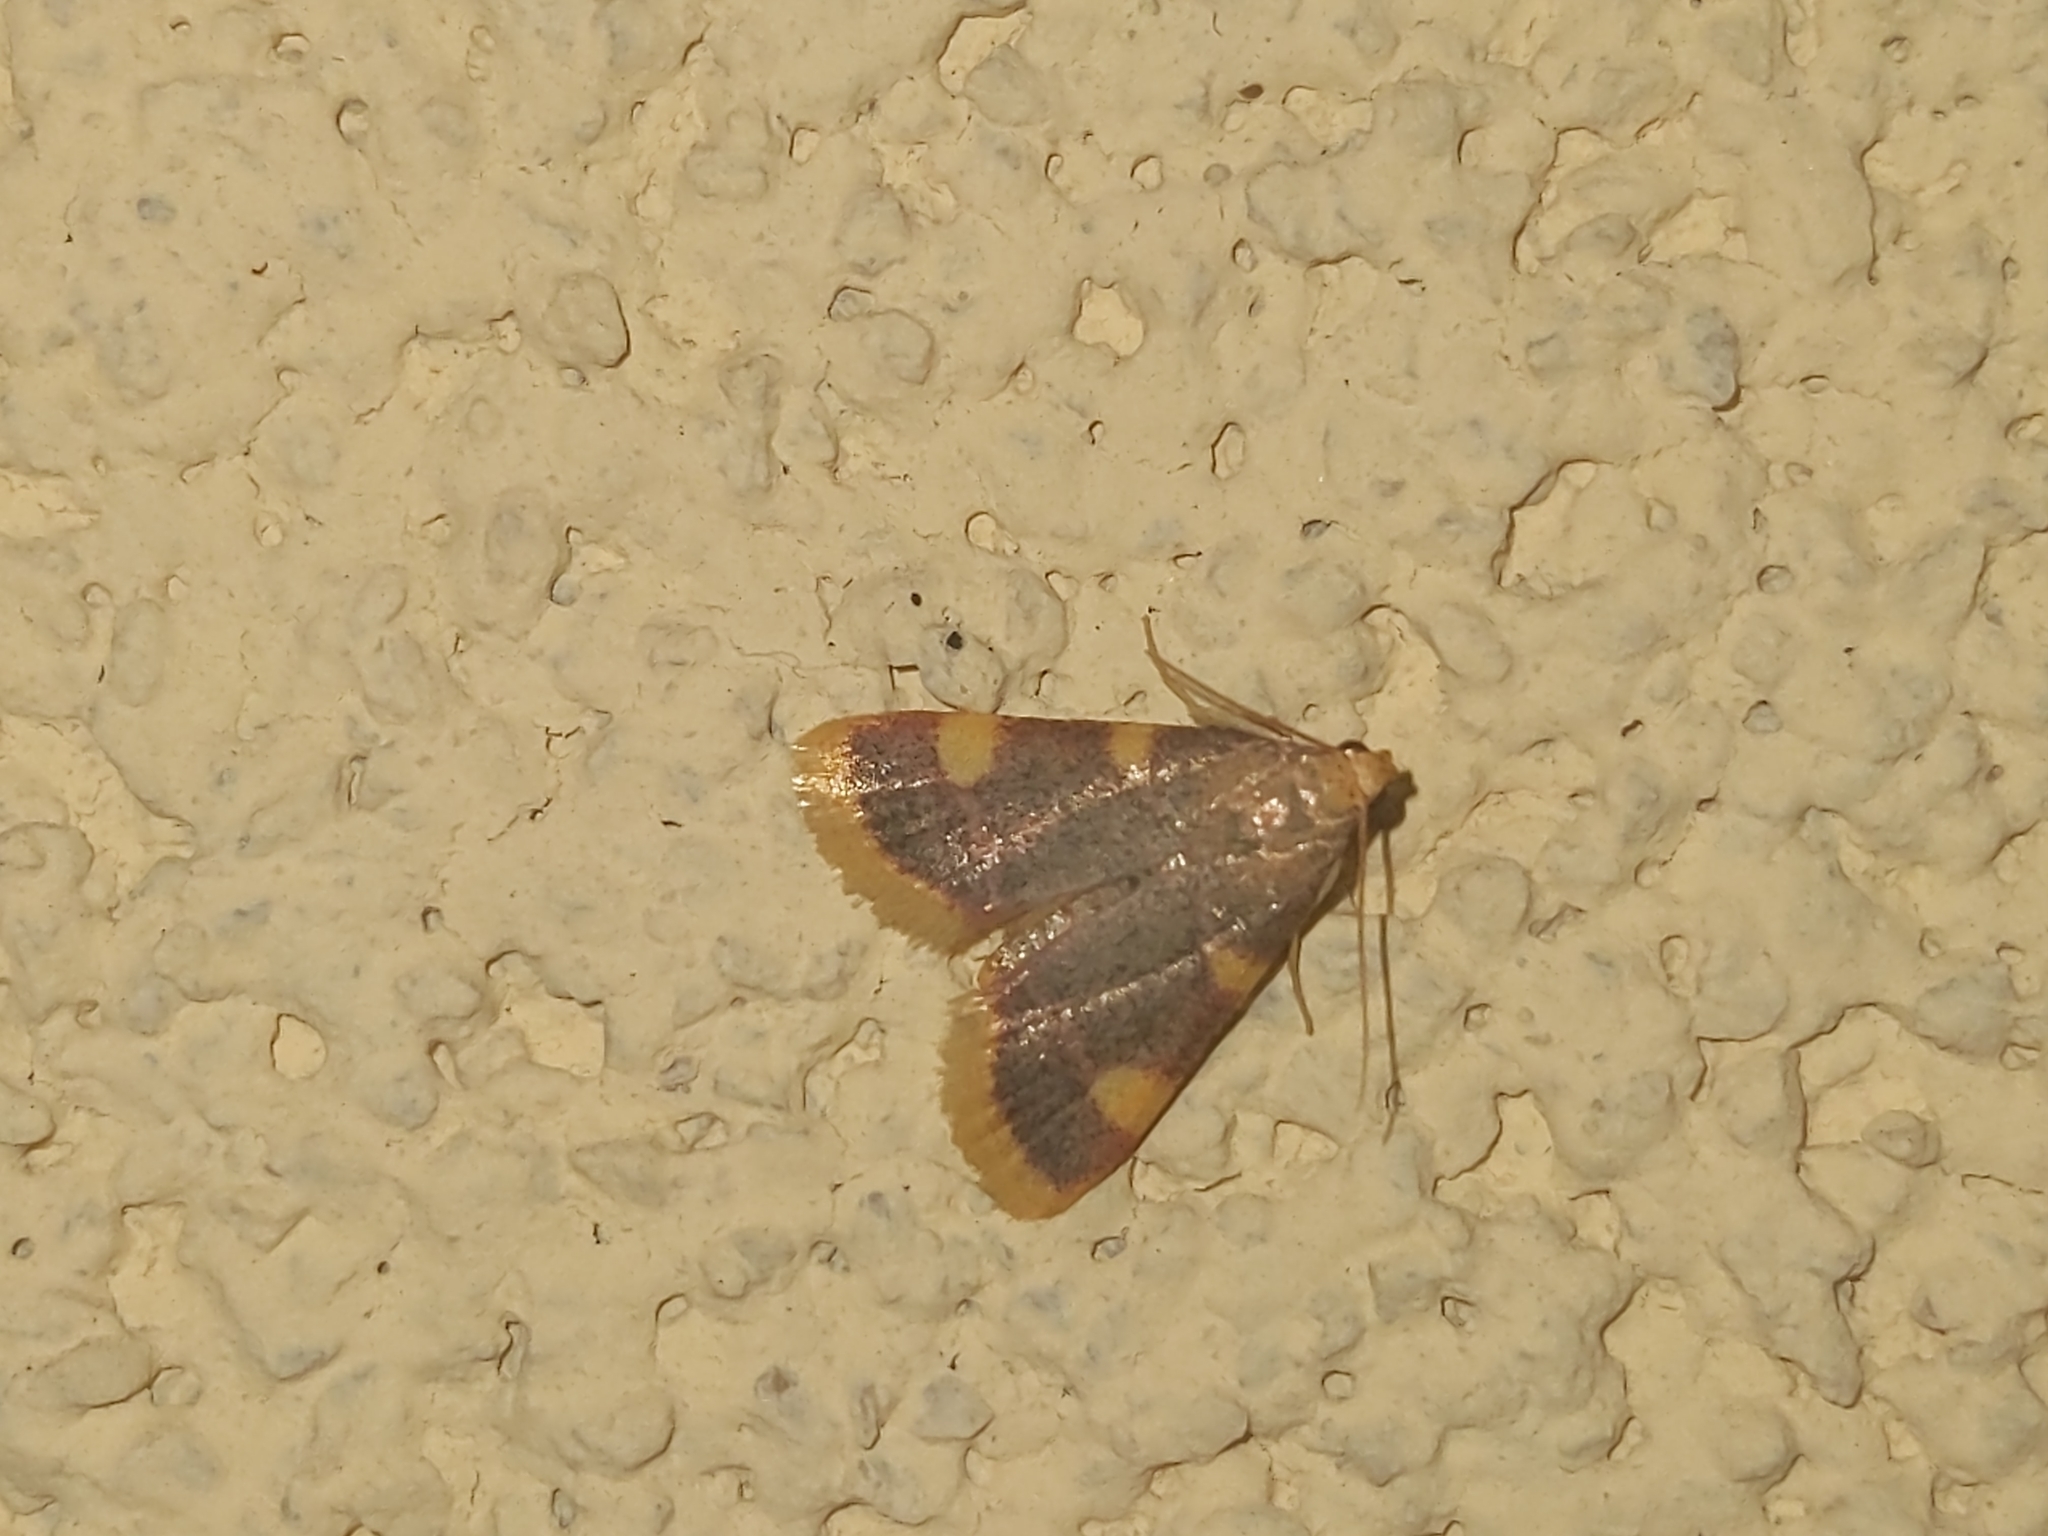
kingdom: Animalia
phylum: Arthropoda
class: Insecta
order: Lepidoptera
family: Pyralidae
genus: Hypsopygia
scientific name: Hypsopygia costalis
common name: Gold triangle
